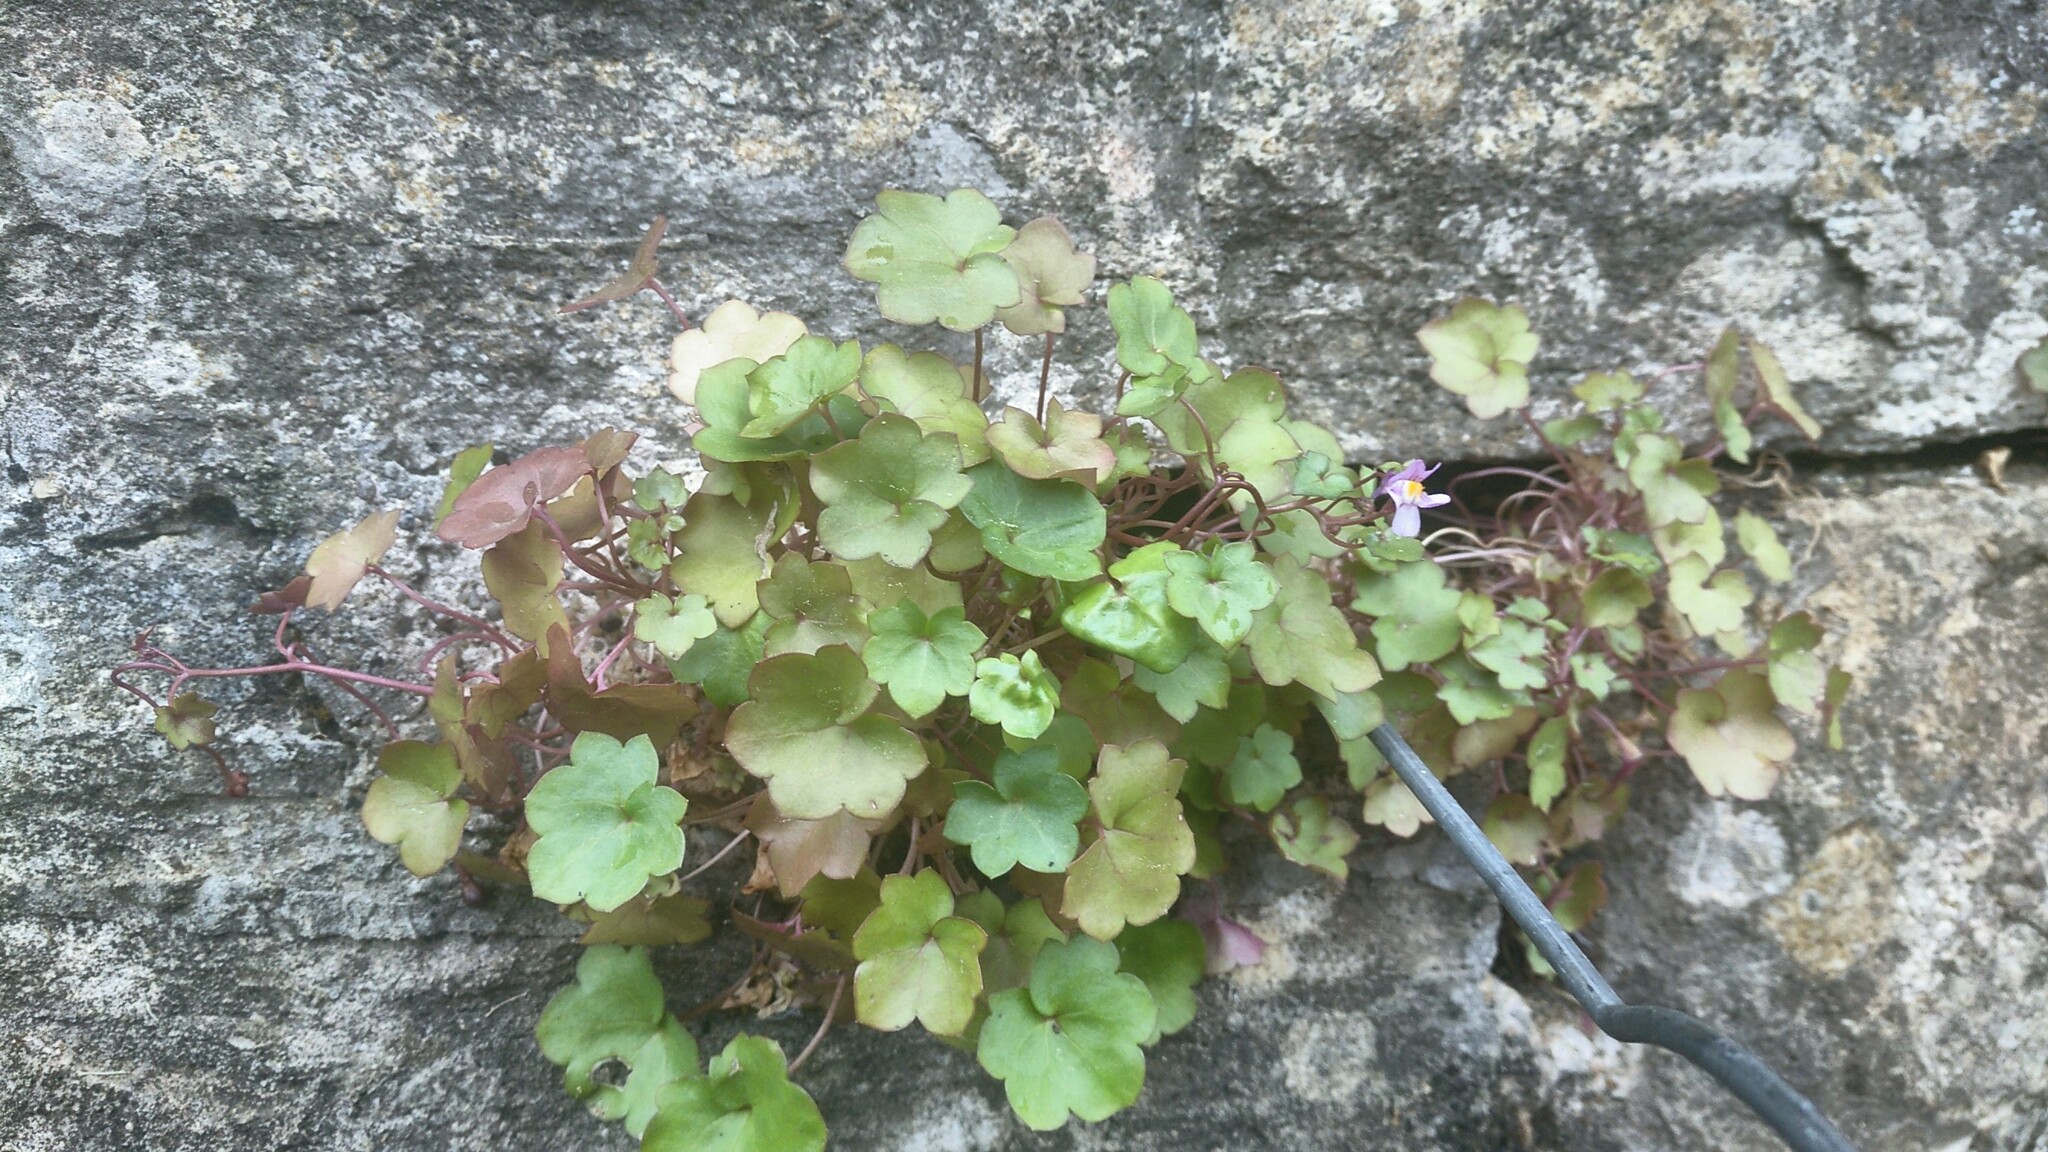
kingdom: Plantae
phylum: Tracheophyta
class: Magnoliopsida
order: Lamiales
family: Plantaginaceae
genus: Cymbalaria
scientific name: Cymbalaria muralis
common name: Ivy-leaved toadflax
